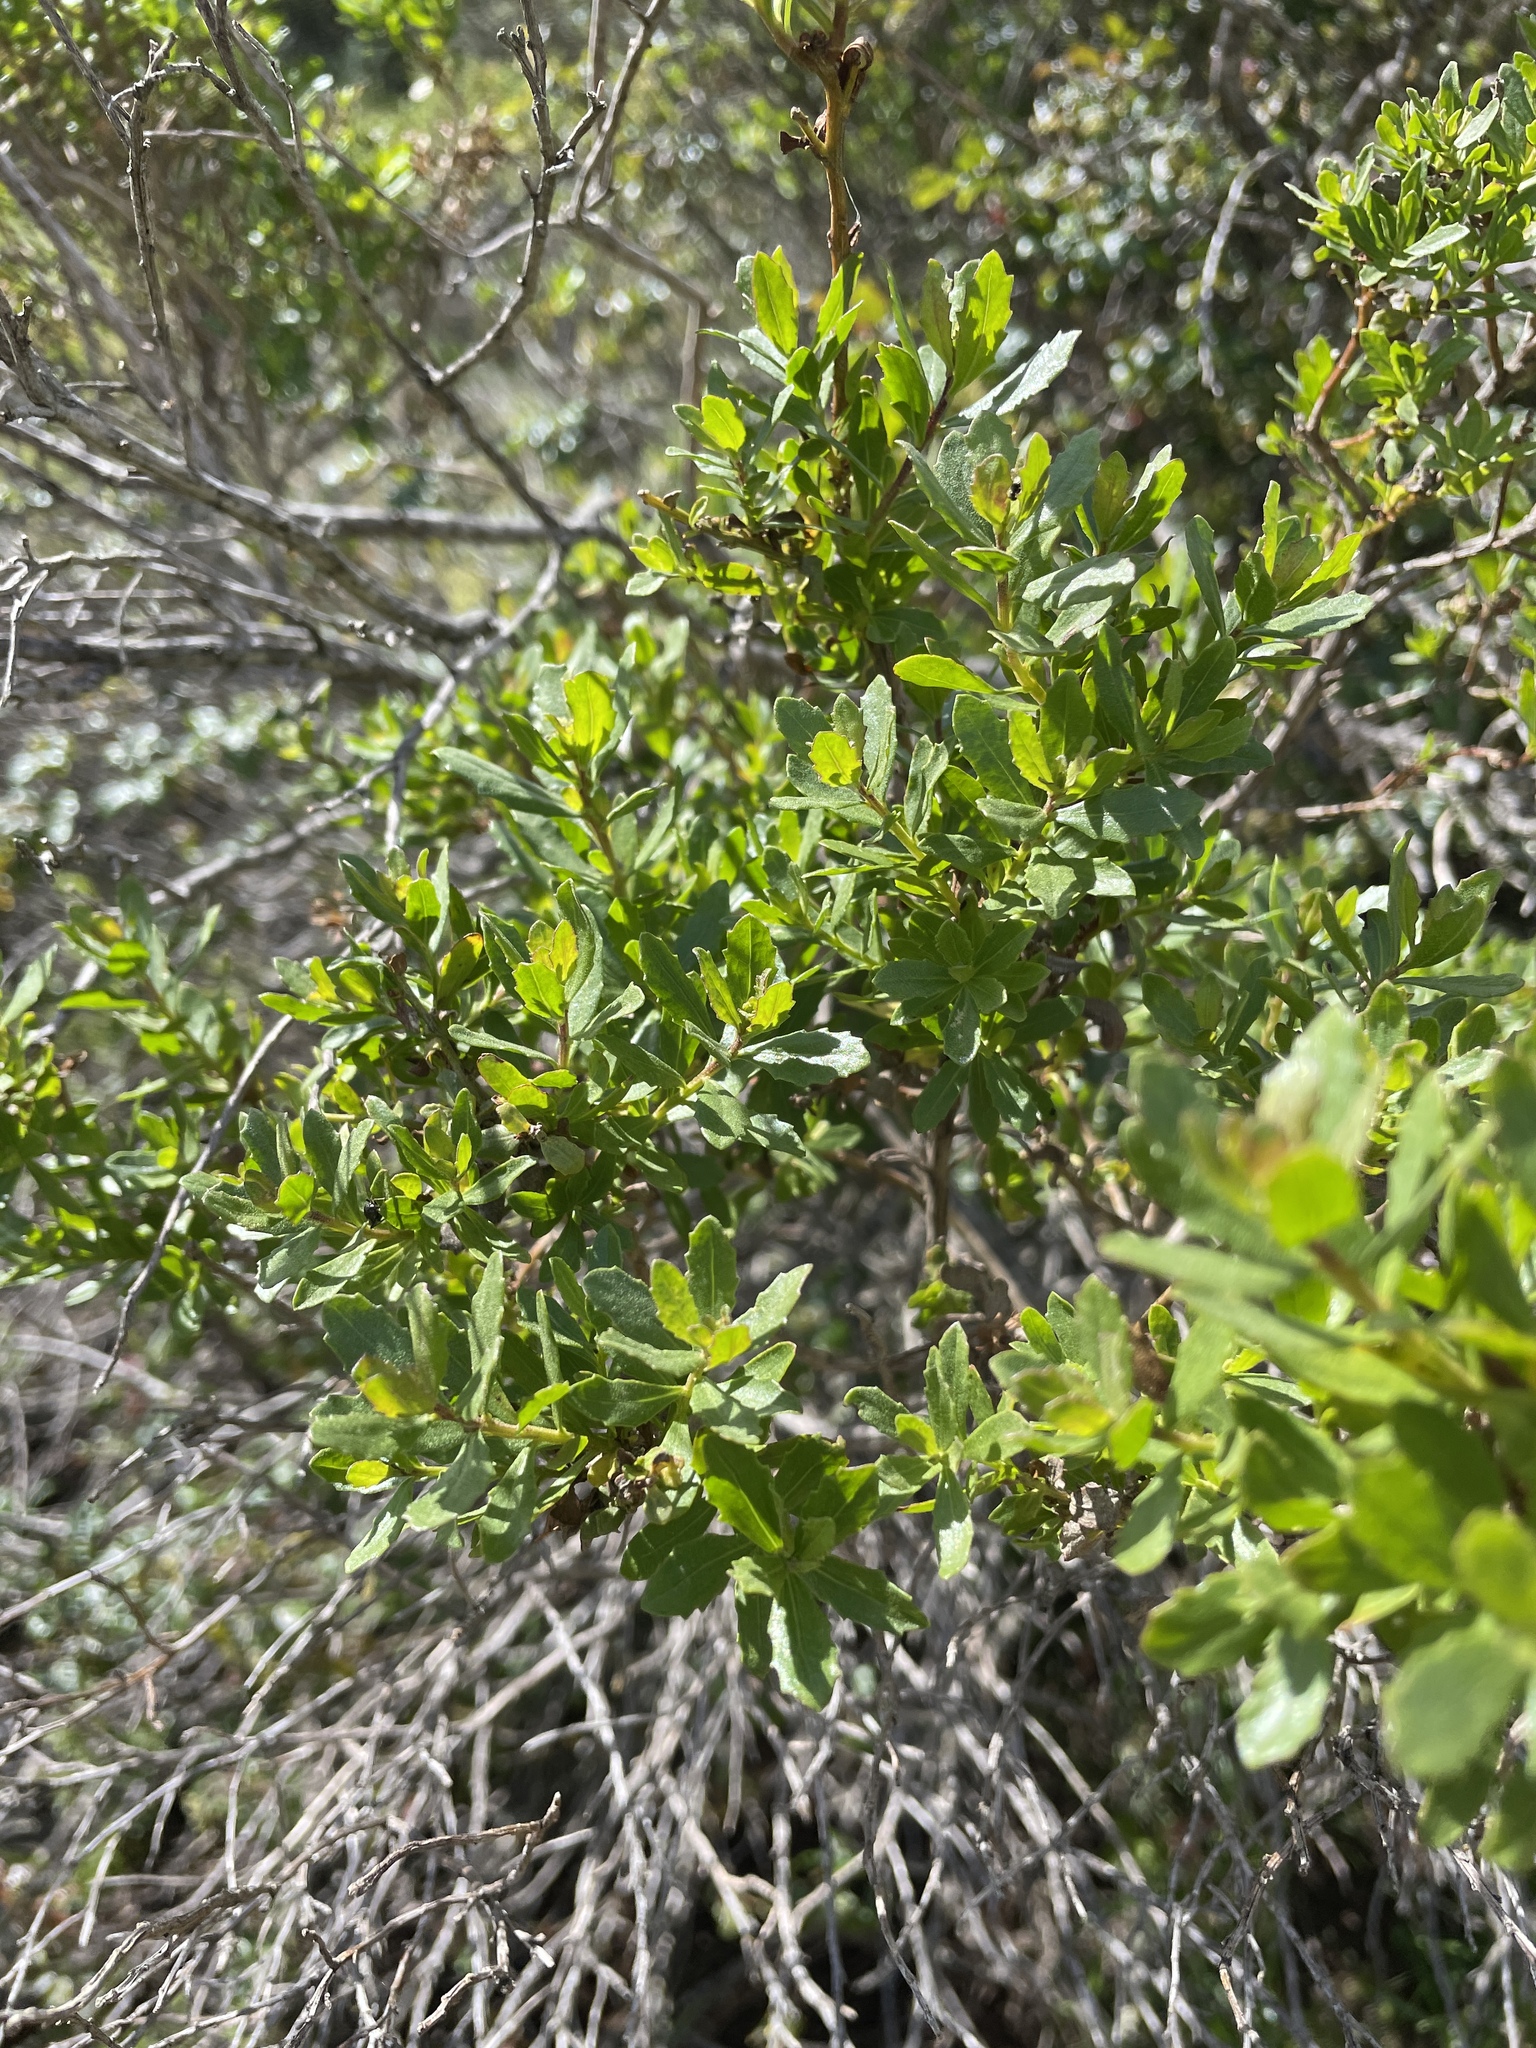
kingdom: Plantae
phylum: Tracheophyta
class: Magnoliopsida
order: Asterales
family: Asteraceae
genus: Baccharis
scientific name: Baccharis pilularis
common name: Coyotebrush
